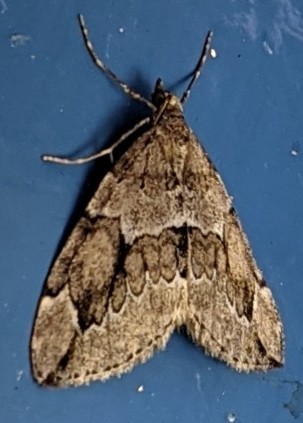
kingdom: Animalia
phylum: Arthropoda
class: Insecta
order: Lepidoptera
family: Geometridae
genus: Thera
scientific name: Thera juniperata
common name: Juniper carpet
